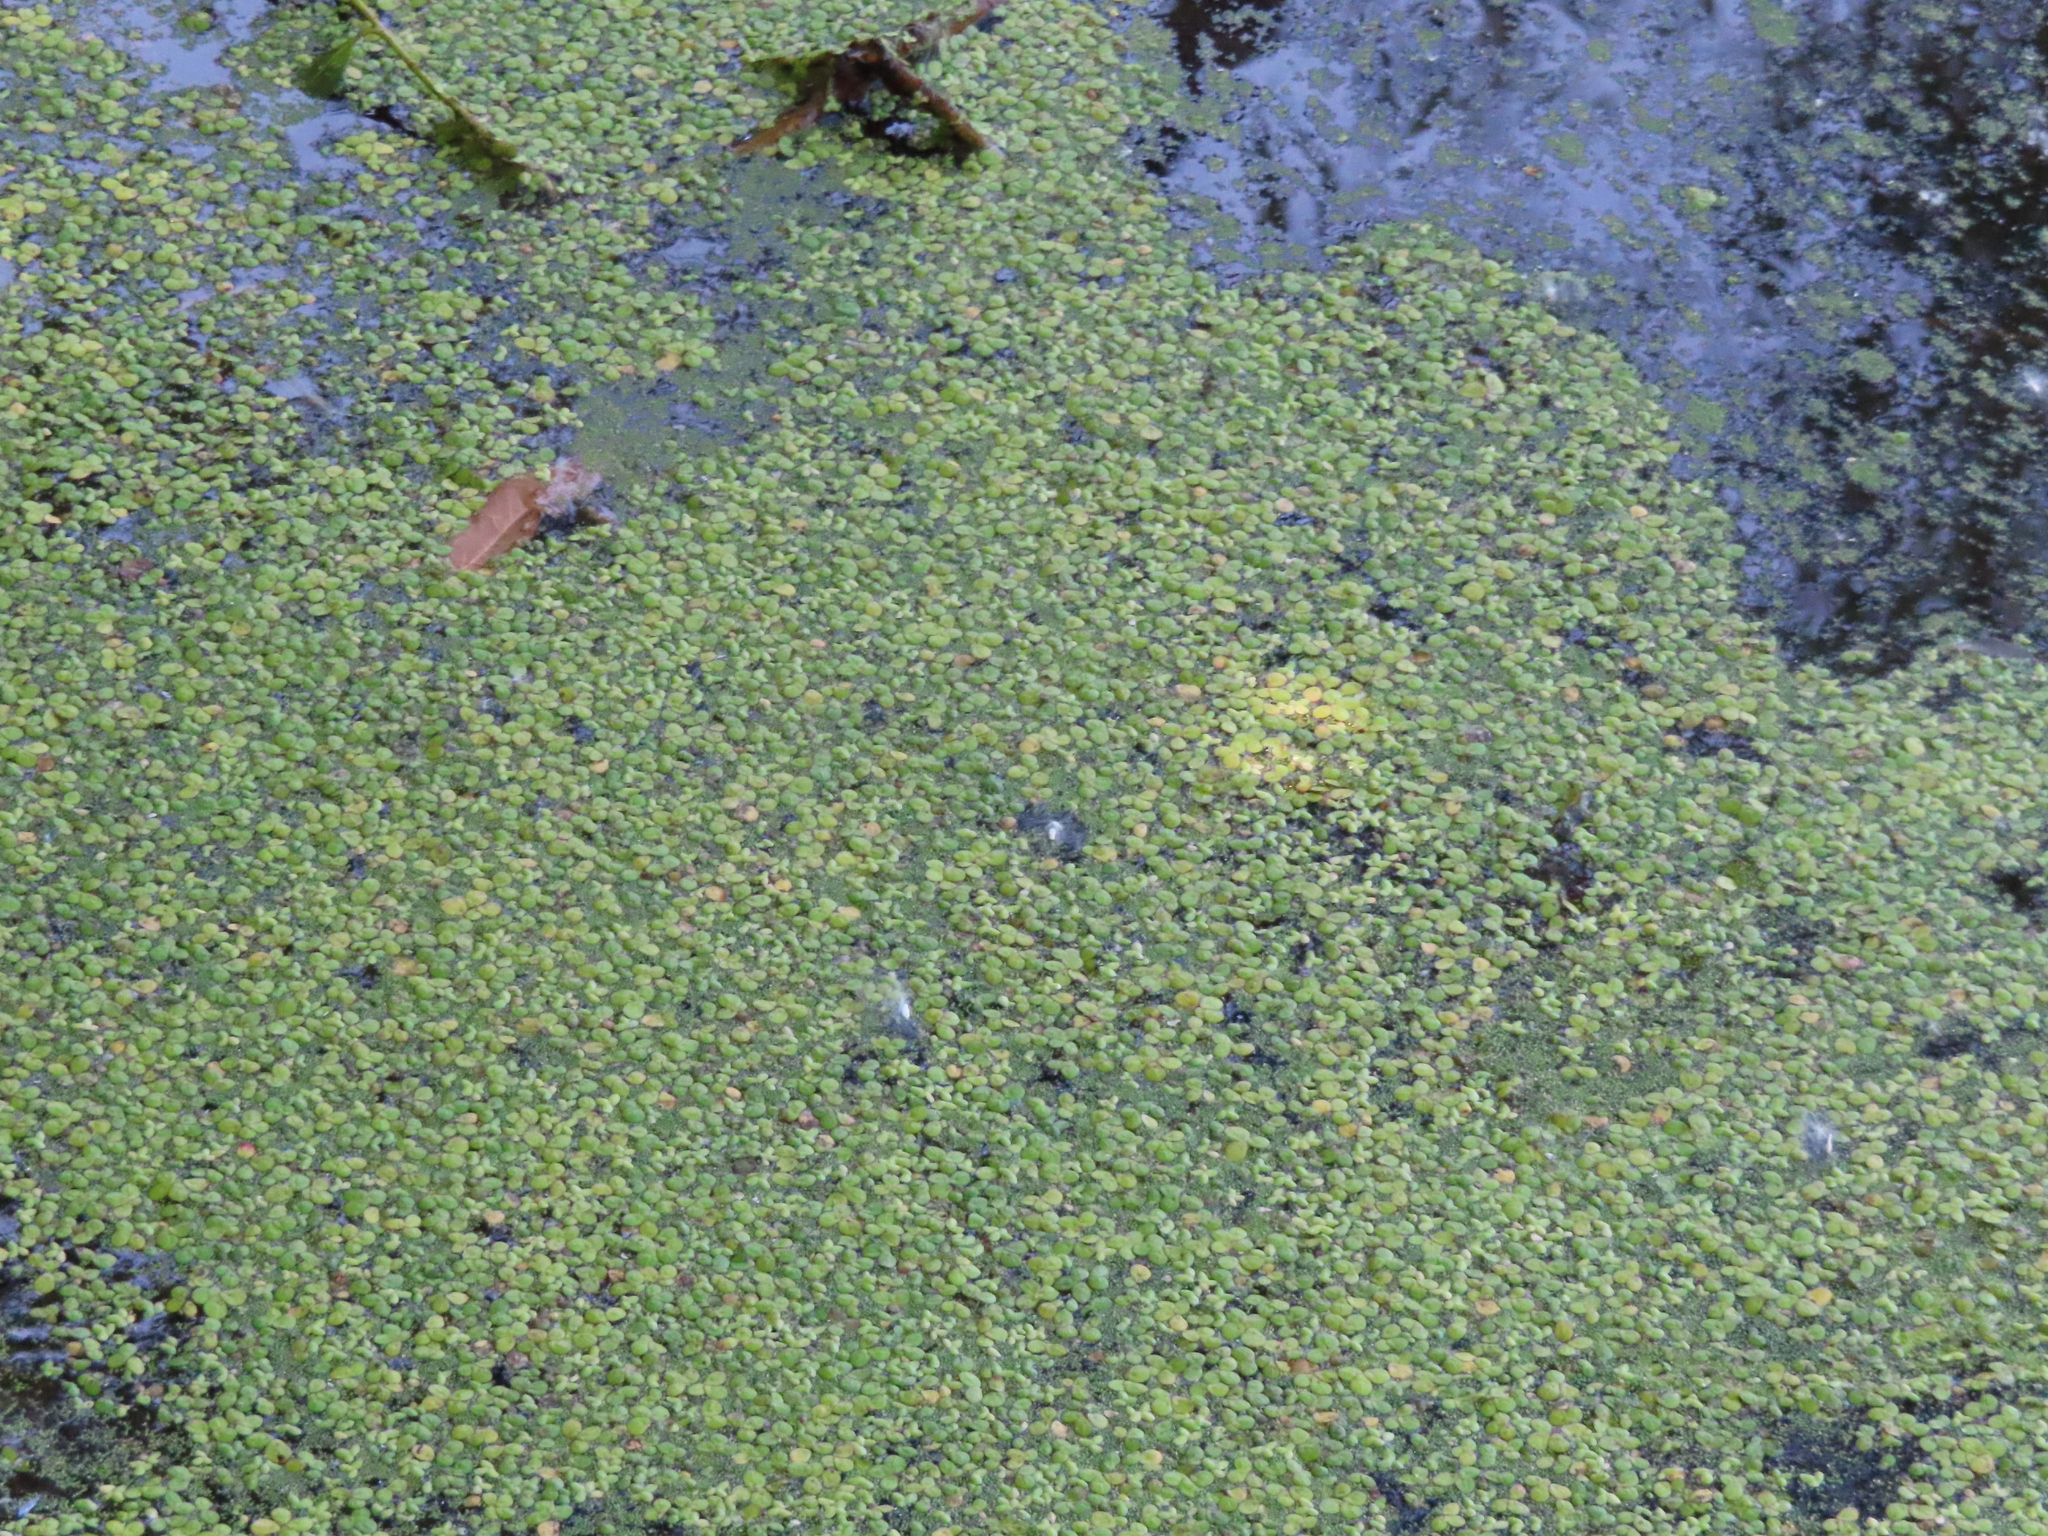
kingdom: Plantae
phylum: Tracheophyta
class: Liliopsida
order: Alismatales
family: Araceae
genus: Spirodela
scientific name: Spirodela polyrhiza
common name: Great duckweed
